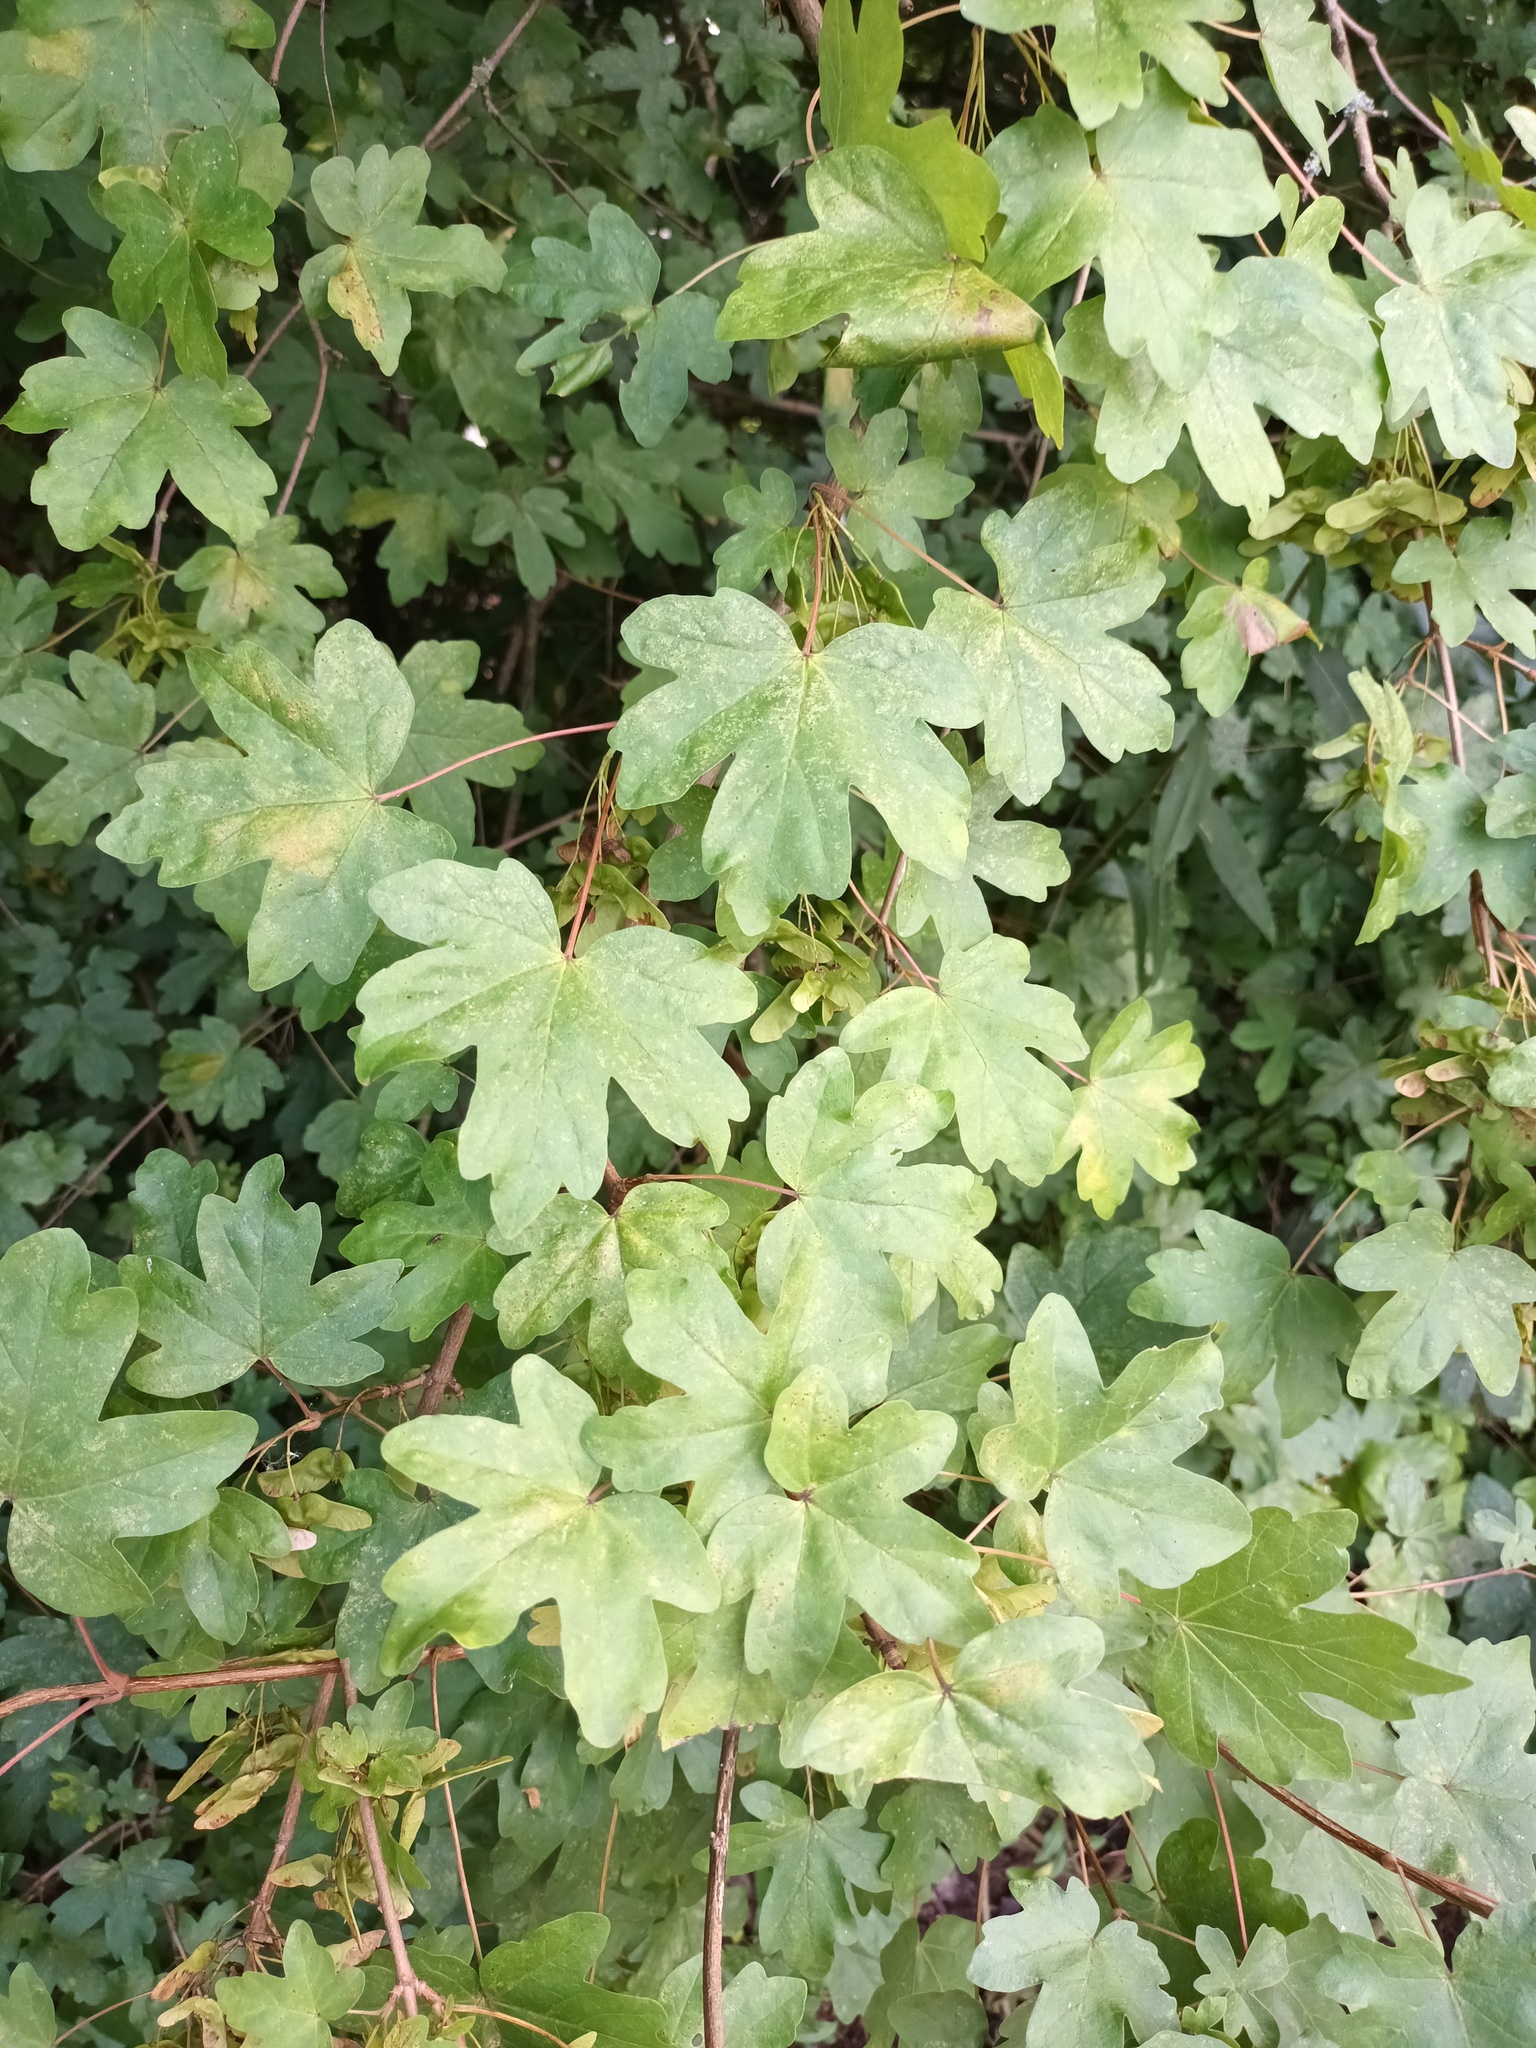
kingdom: Plantae
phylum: Tracheophyta
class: Magnoliopsida
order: Sapindales
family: Sapindaceae
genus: Acer
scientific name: Acer campestre
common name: Field maple
